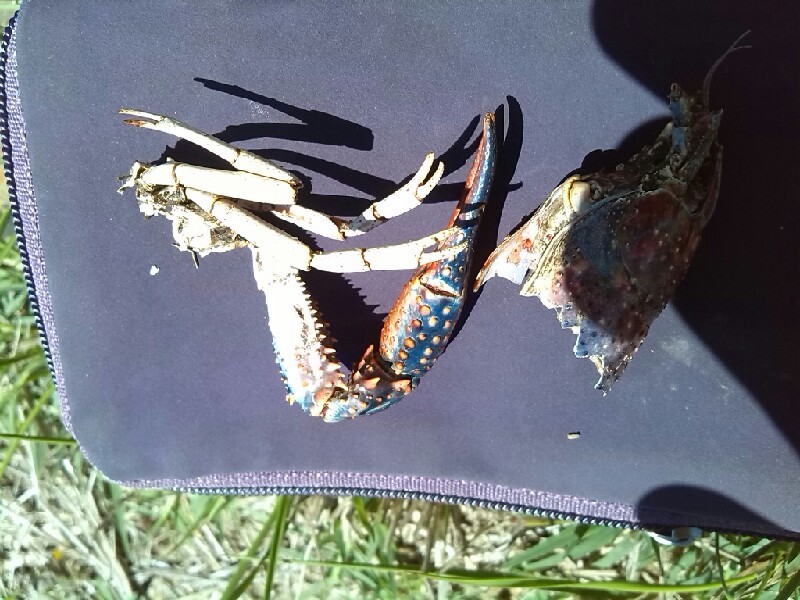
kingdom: Animalia
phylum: Arthropoda
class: Malacostraca
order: Decapoda
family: Cambaridae
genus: Procambarus
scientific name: Procambarus clarkii
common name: Red swamp crayfish
